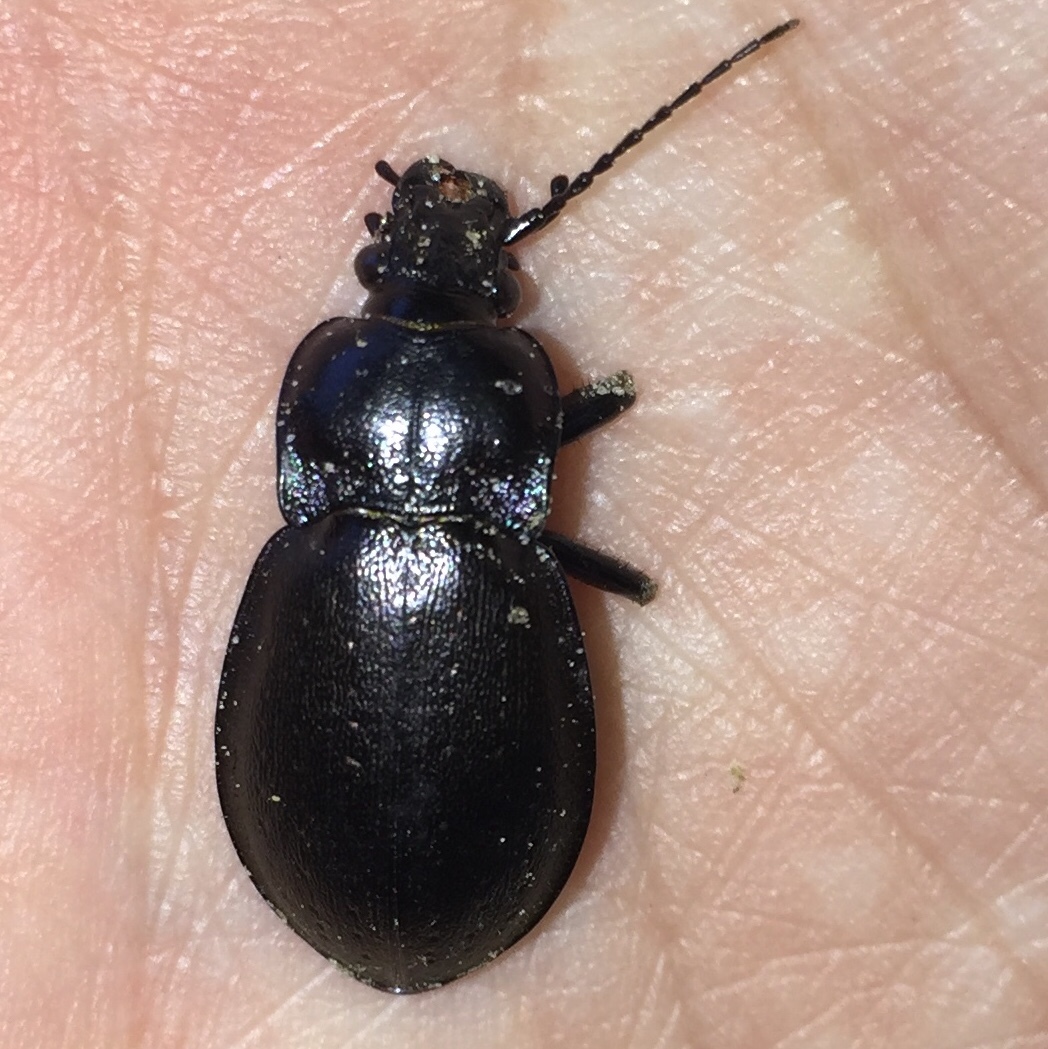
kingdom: Animalia
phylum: Arthropoda
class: Insecta
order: Coleoptera
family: Carabidae
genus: Carabus
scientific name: Carabus nemoralis
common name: European ground beetle
